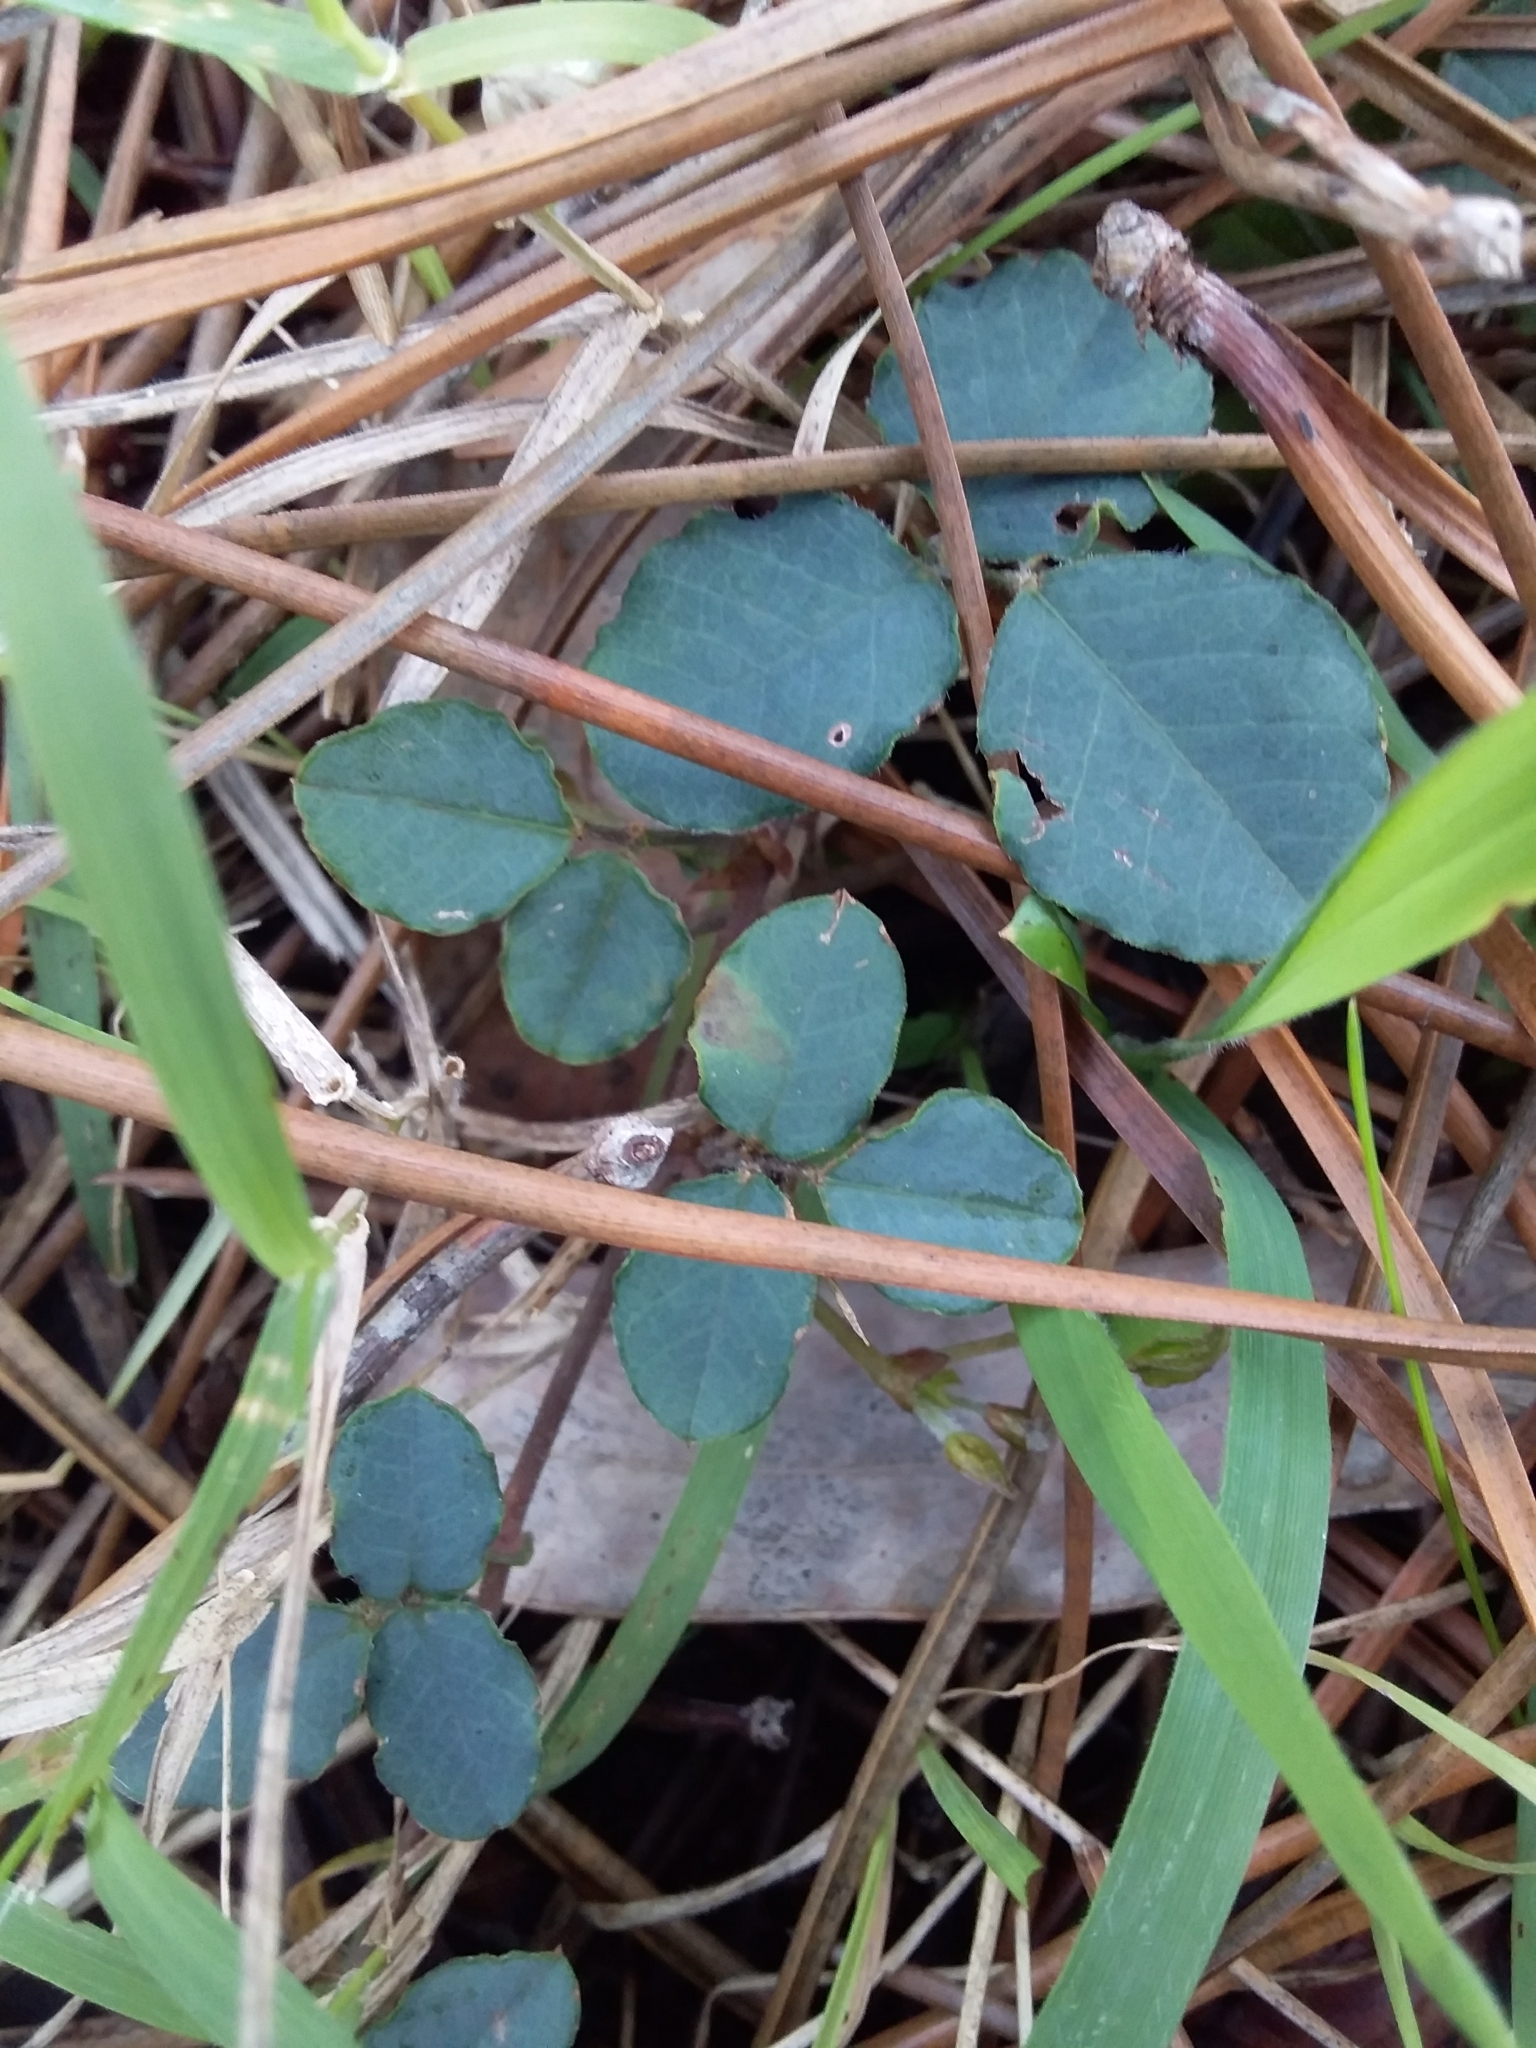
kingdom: Plantae
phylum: Tracheophyta
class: Magnoliopsida
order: Fabales
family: Fabaceae
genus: Kennedia
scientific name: Kennedia prostrata
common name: Running-postman
